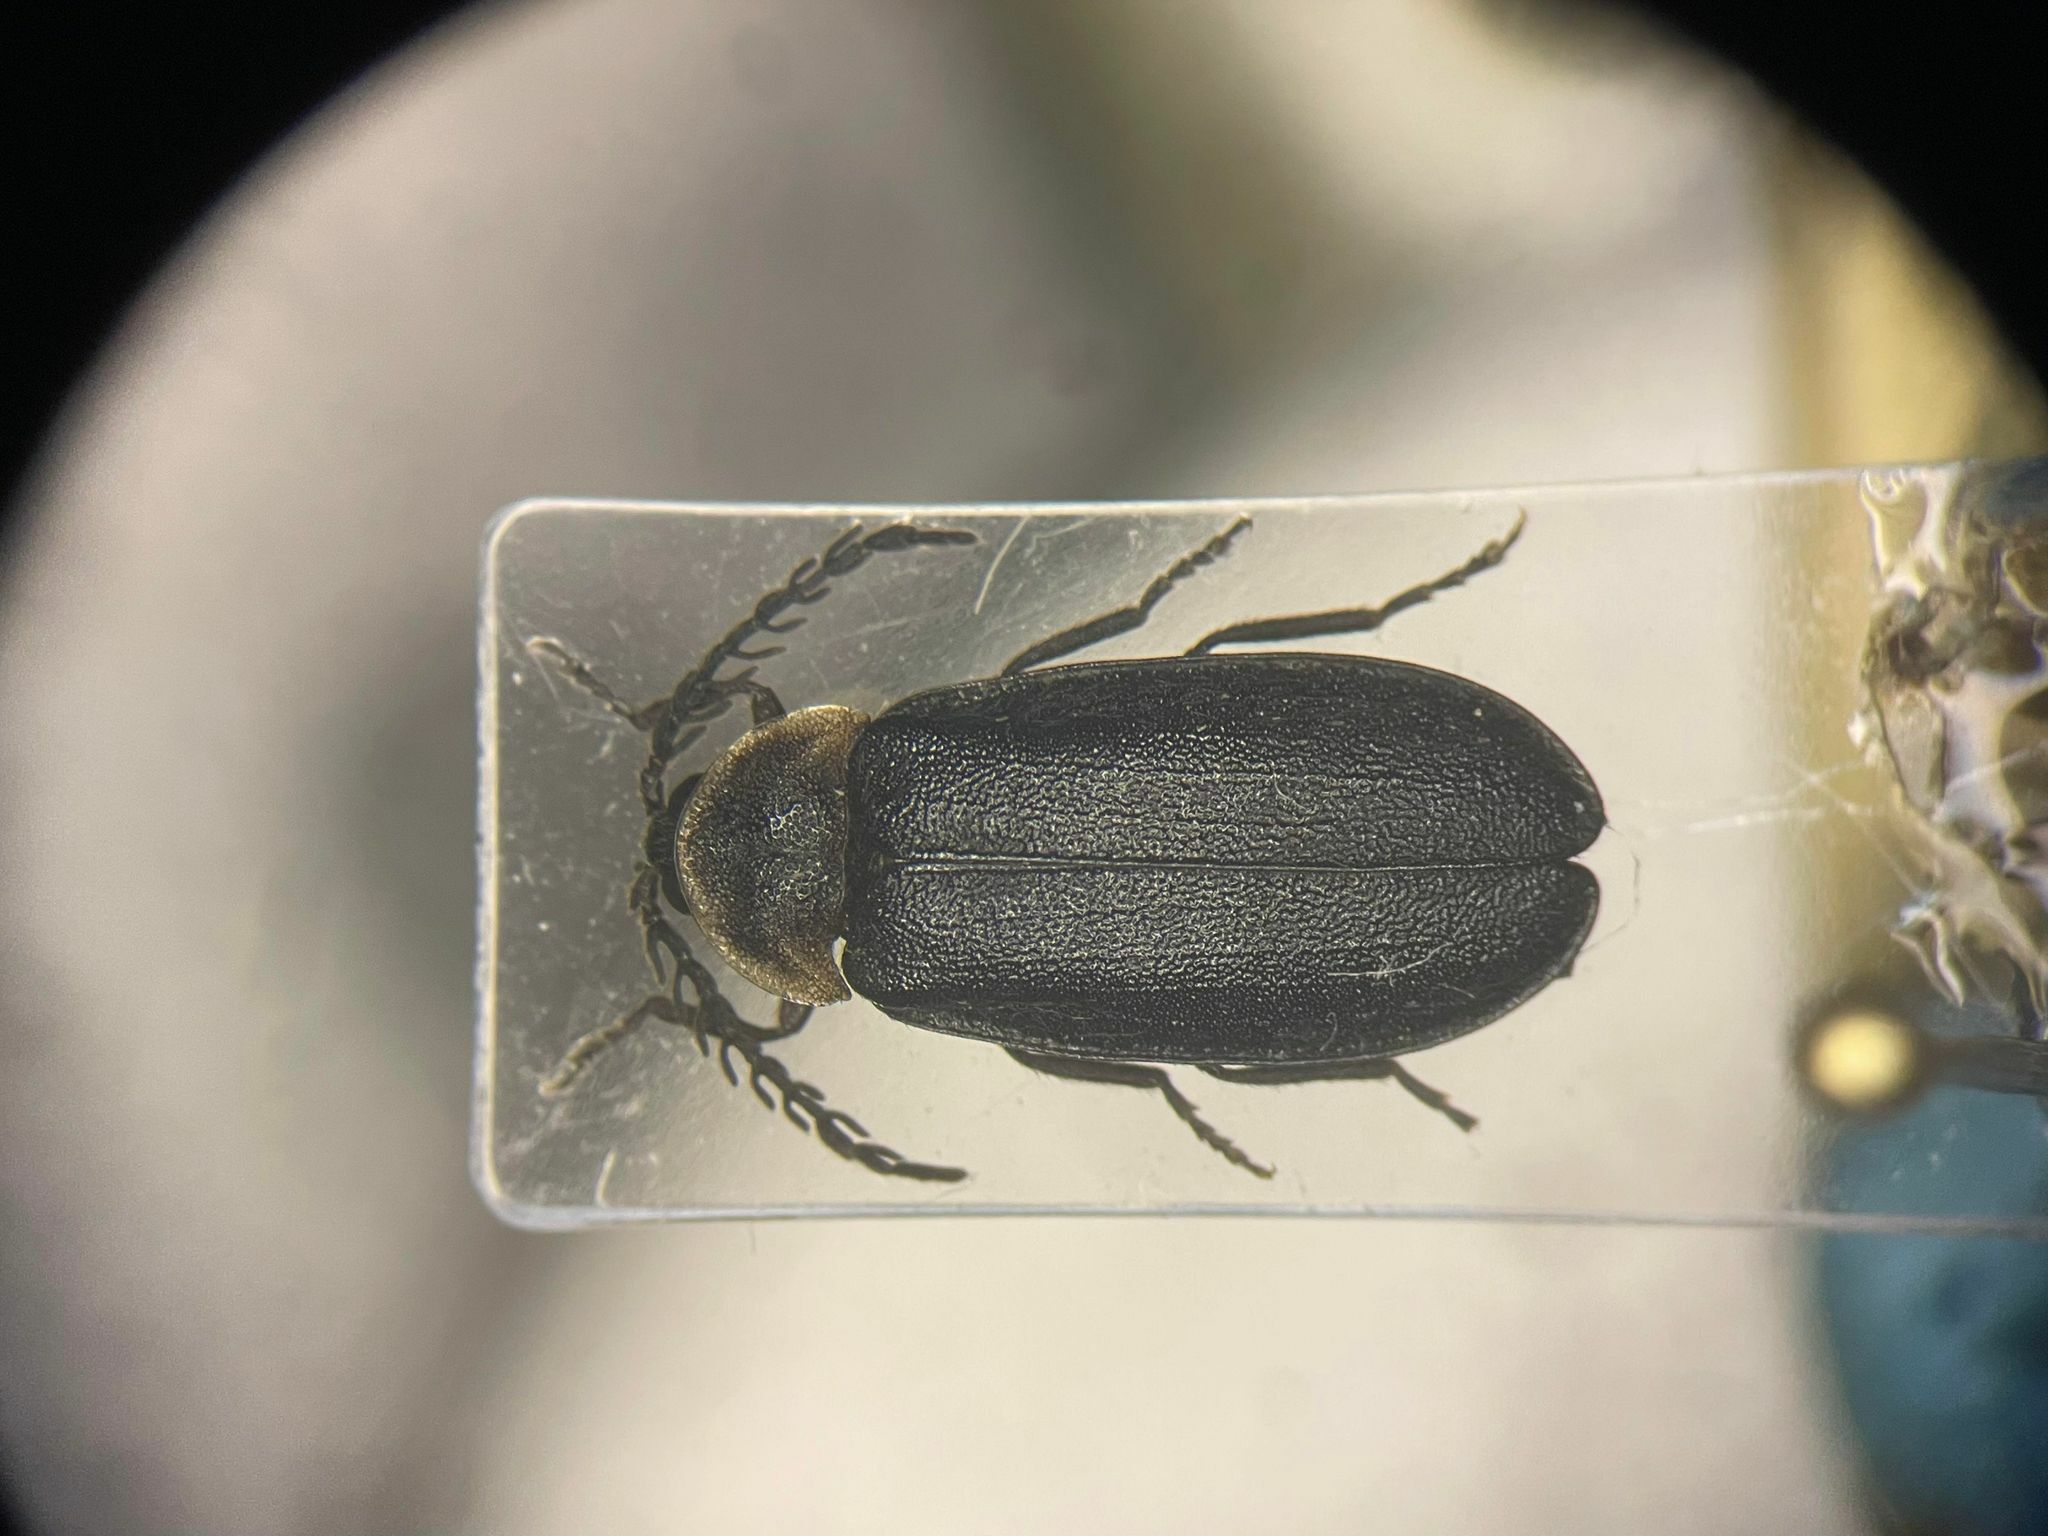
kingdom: Animalia
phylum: Arthropoda
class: Insecta
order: Coleoptera
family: Lampyridae
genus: Pollaclasis
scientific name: Pollaclasis bifaria
